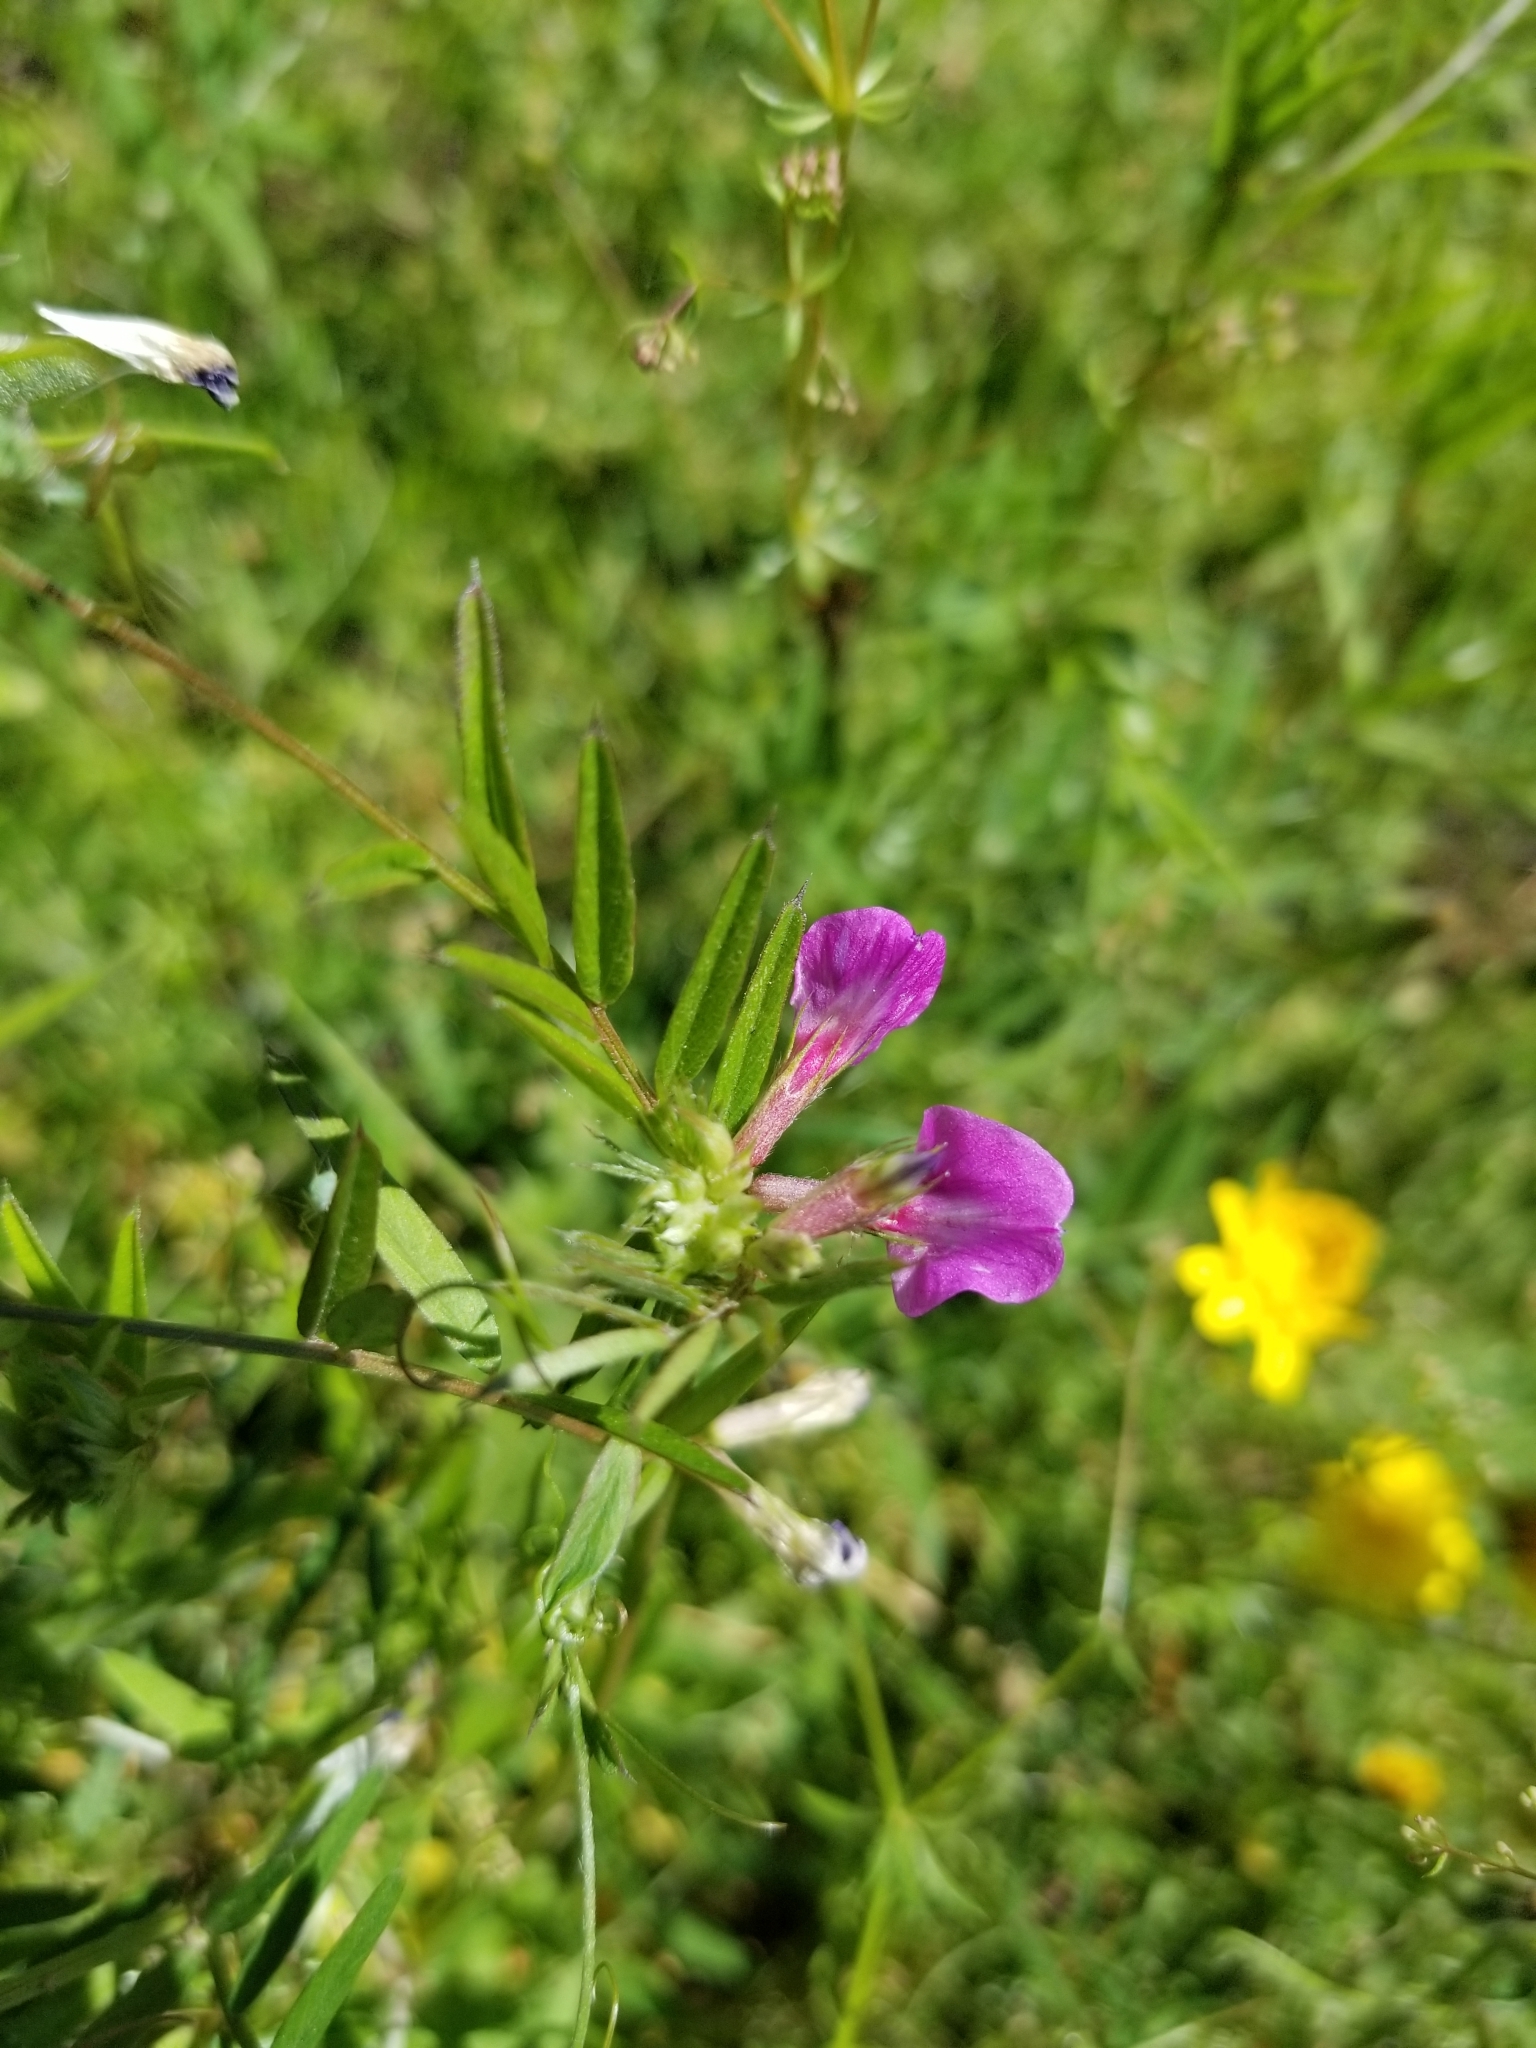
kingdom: Plantae
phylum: Tracheophyta
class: Magnoliopsida
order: Fabales
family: Fabaceae
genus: Vicia
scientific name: Vicia sativa
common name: Garden vetch
